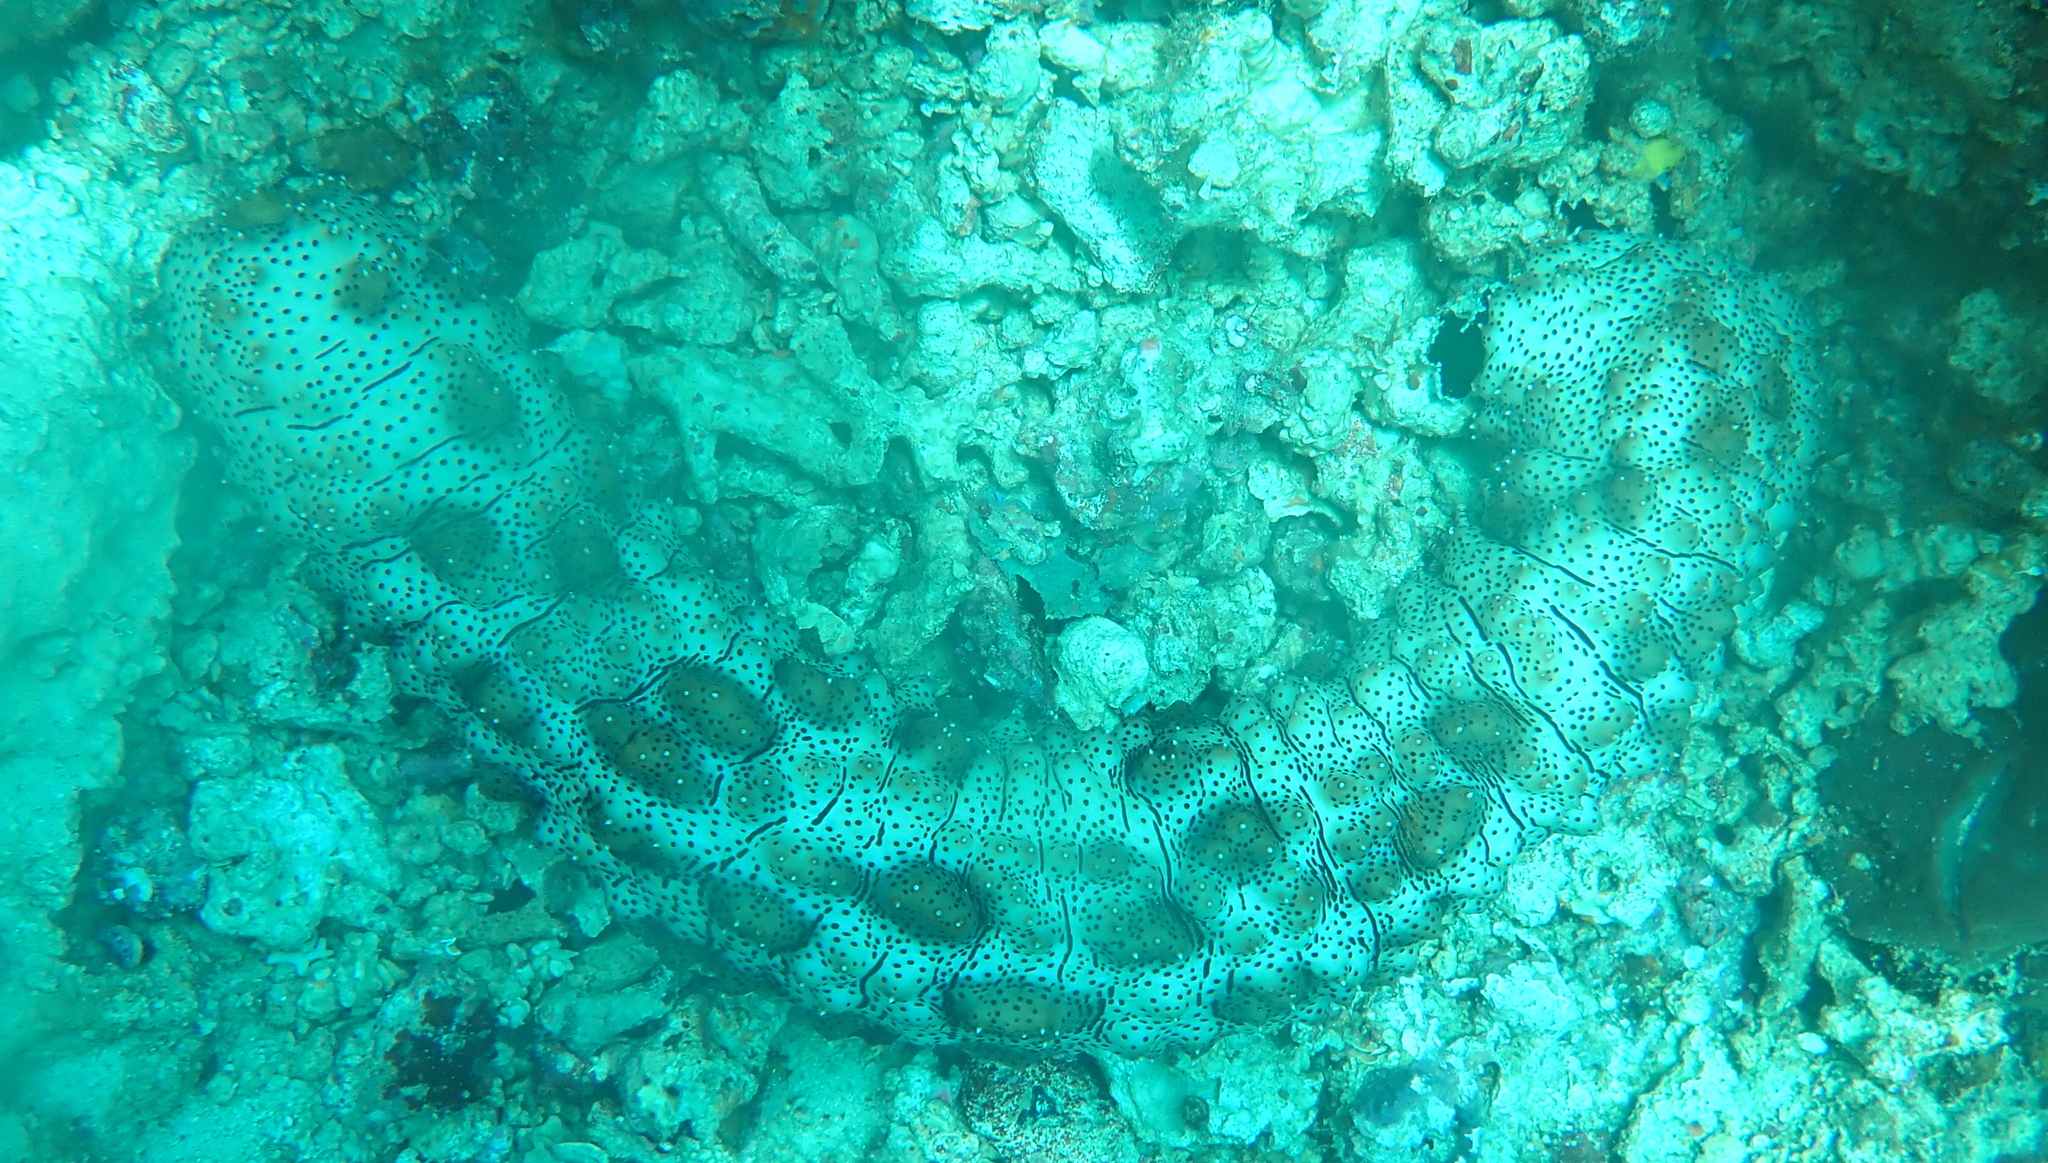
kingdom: Animalia
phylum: Echinodermata
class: Holothuroidea
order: Holothuriida
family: Holothuriidae
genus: Pearsonothuria
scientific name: Pearsonothuria graeffei
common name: Blackspotted sea cucumber
